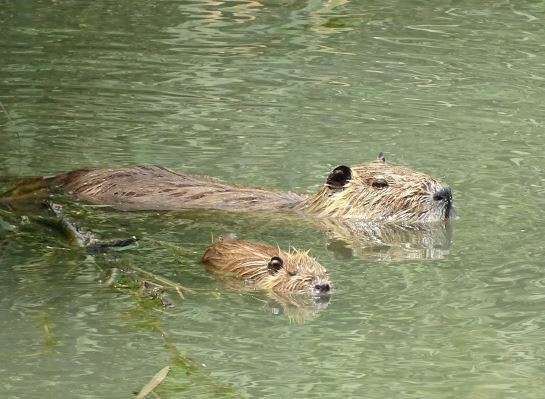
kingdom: Animalia
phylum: Chordata
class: Mammalia
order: Rodentia
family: Myocastoridae
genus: Myocastor
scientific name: Myocastor coypus
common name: Coypu
